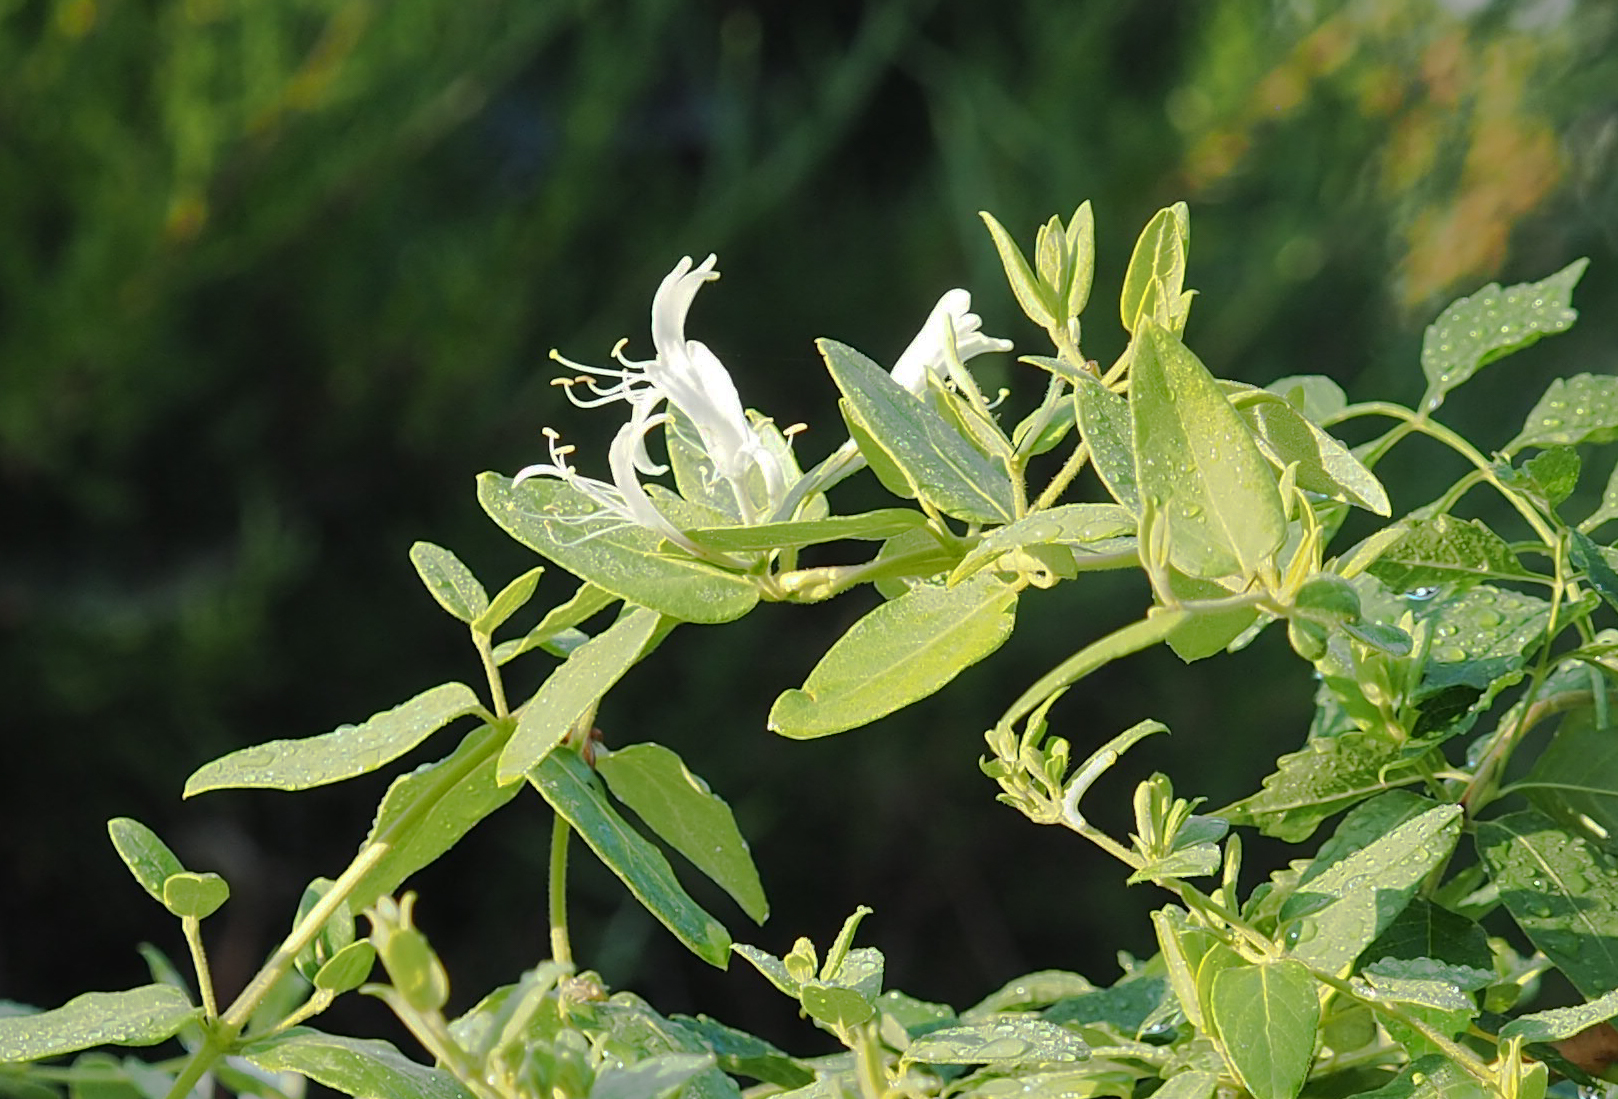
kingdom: Plantae
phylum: Tracheophyta
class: Magnoliopsida
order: Dipsacales
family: Caprifoliaceae
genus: Lonicera
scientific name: Lonicera japonica
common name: Japanese honeysuckle
